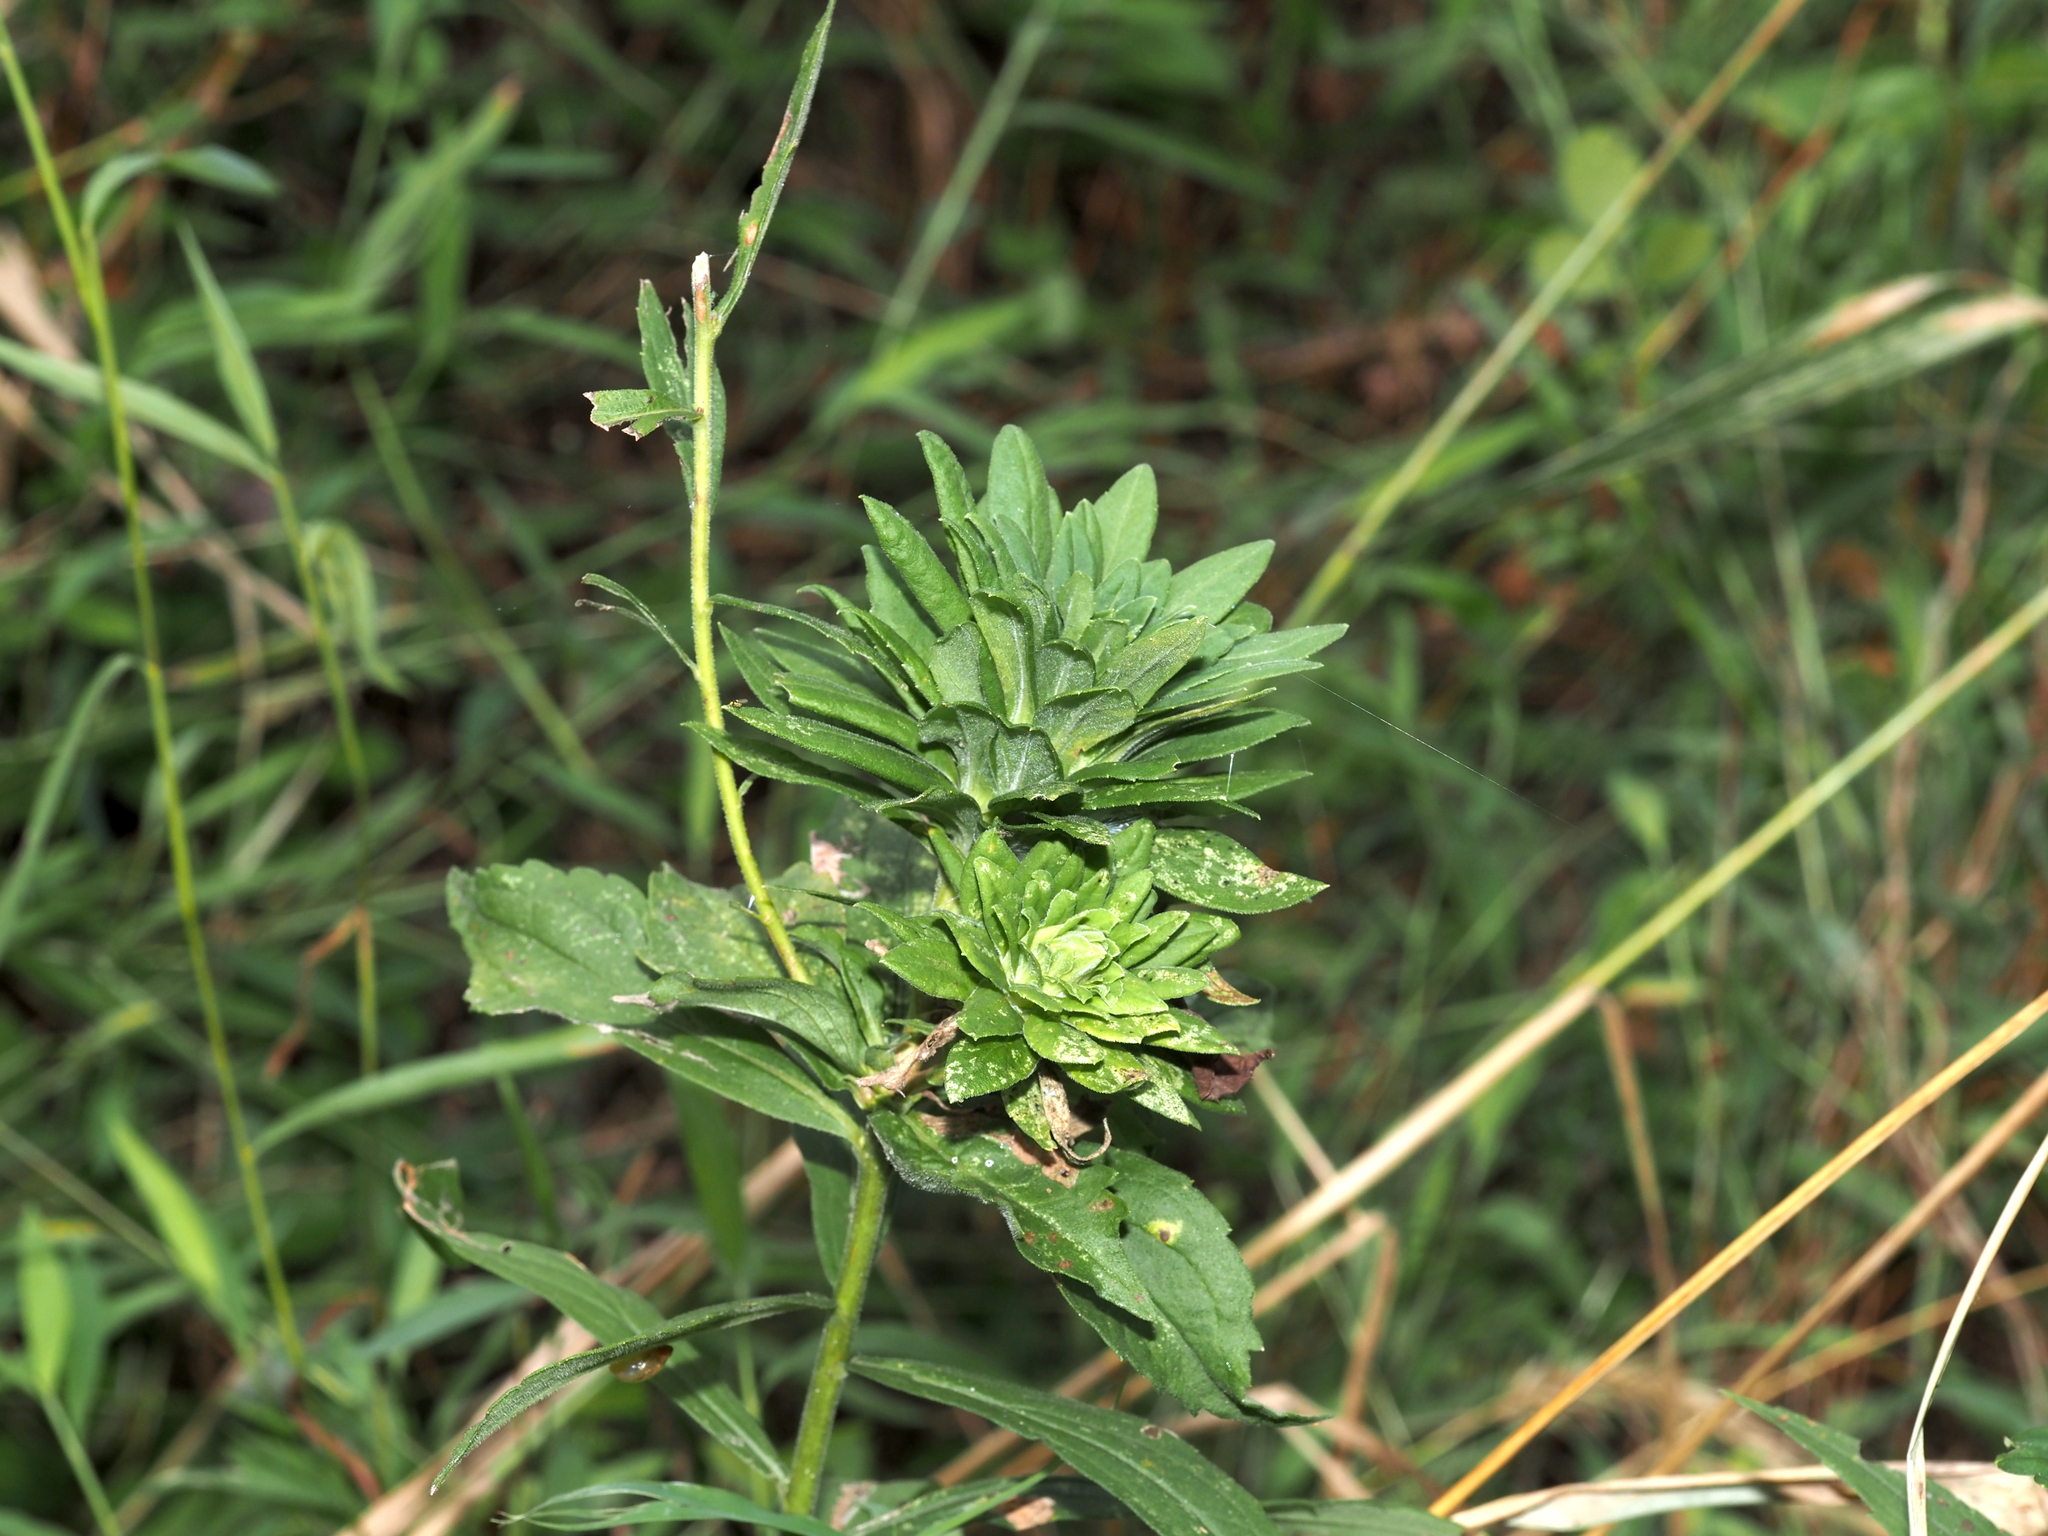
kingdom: Animalia
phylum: Arthropoda
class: Insecta
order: Diptera
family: Tephritidae
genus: Procecidochares
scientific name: Procecidochares atra
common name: Goldenrod brussels sprout gall fly
